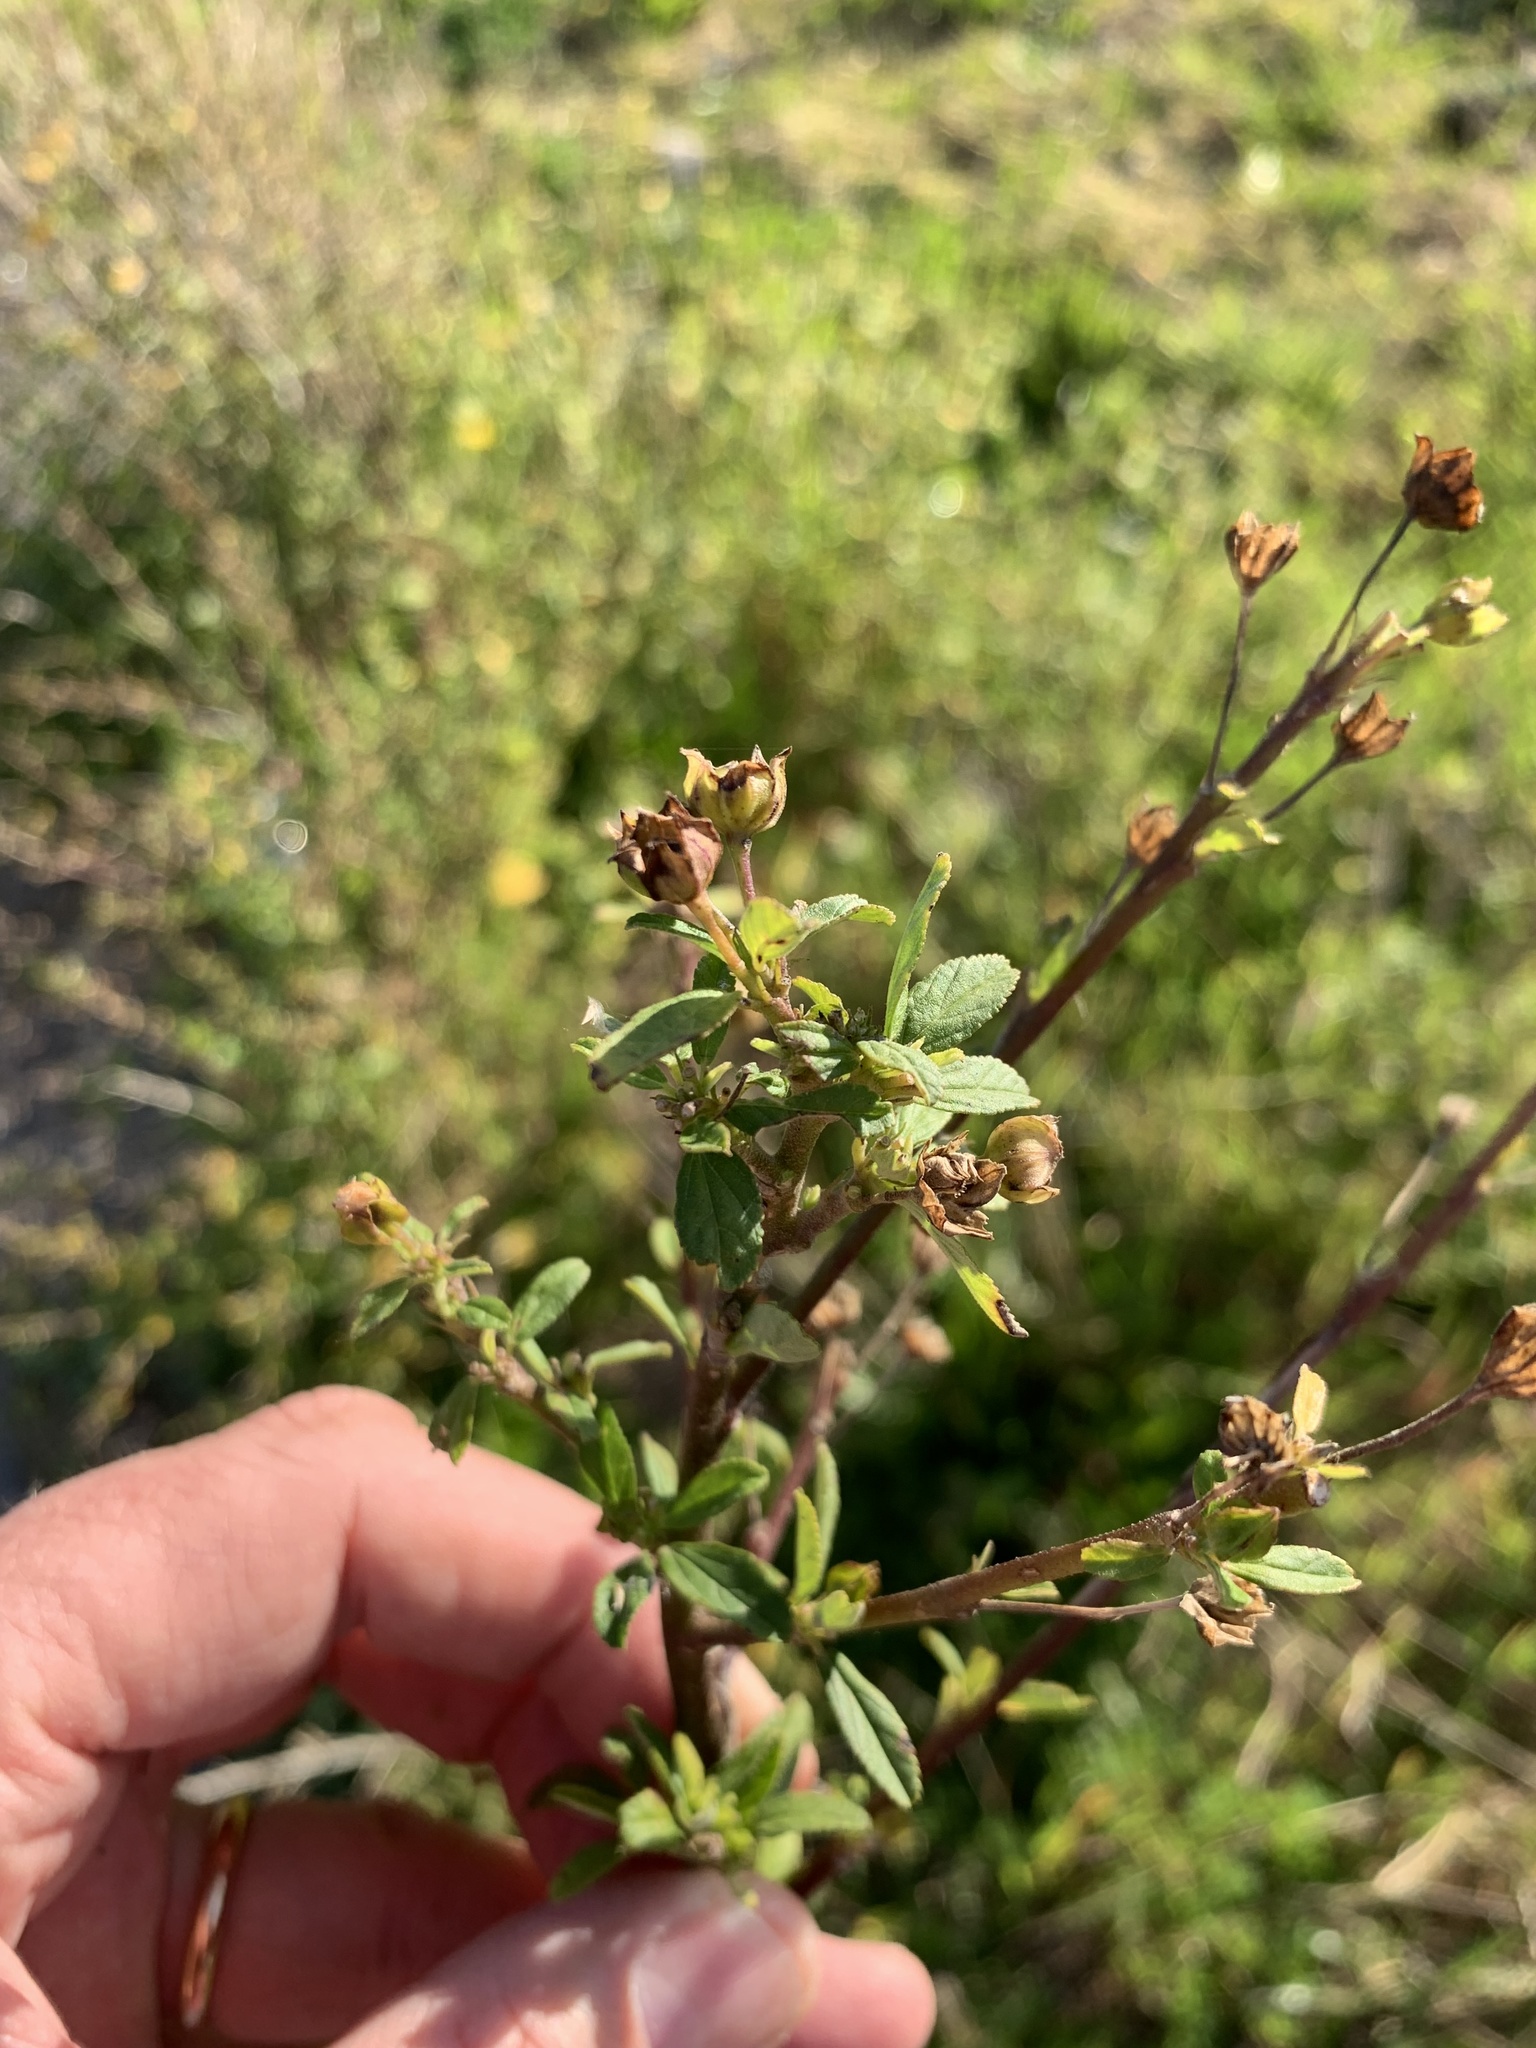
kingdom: Plantae
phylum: Tracheophyta
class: Magnoliopsida
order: Malvales
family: Malvaceae
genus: Sida
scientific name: Sida rhombifolia
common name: Queensland-hemp
